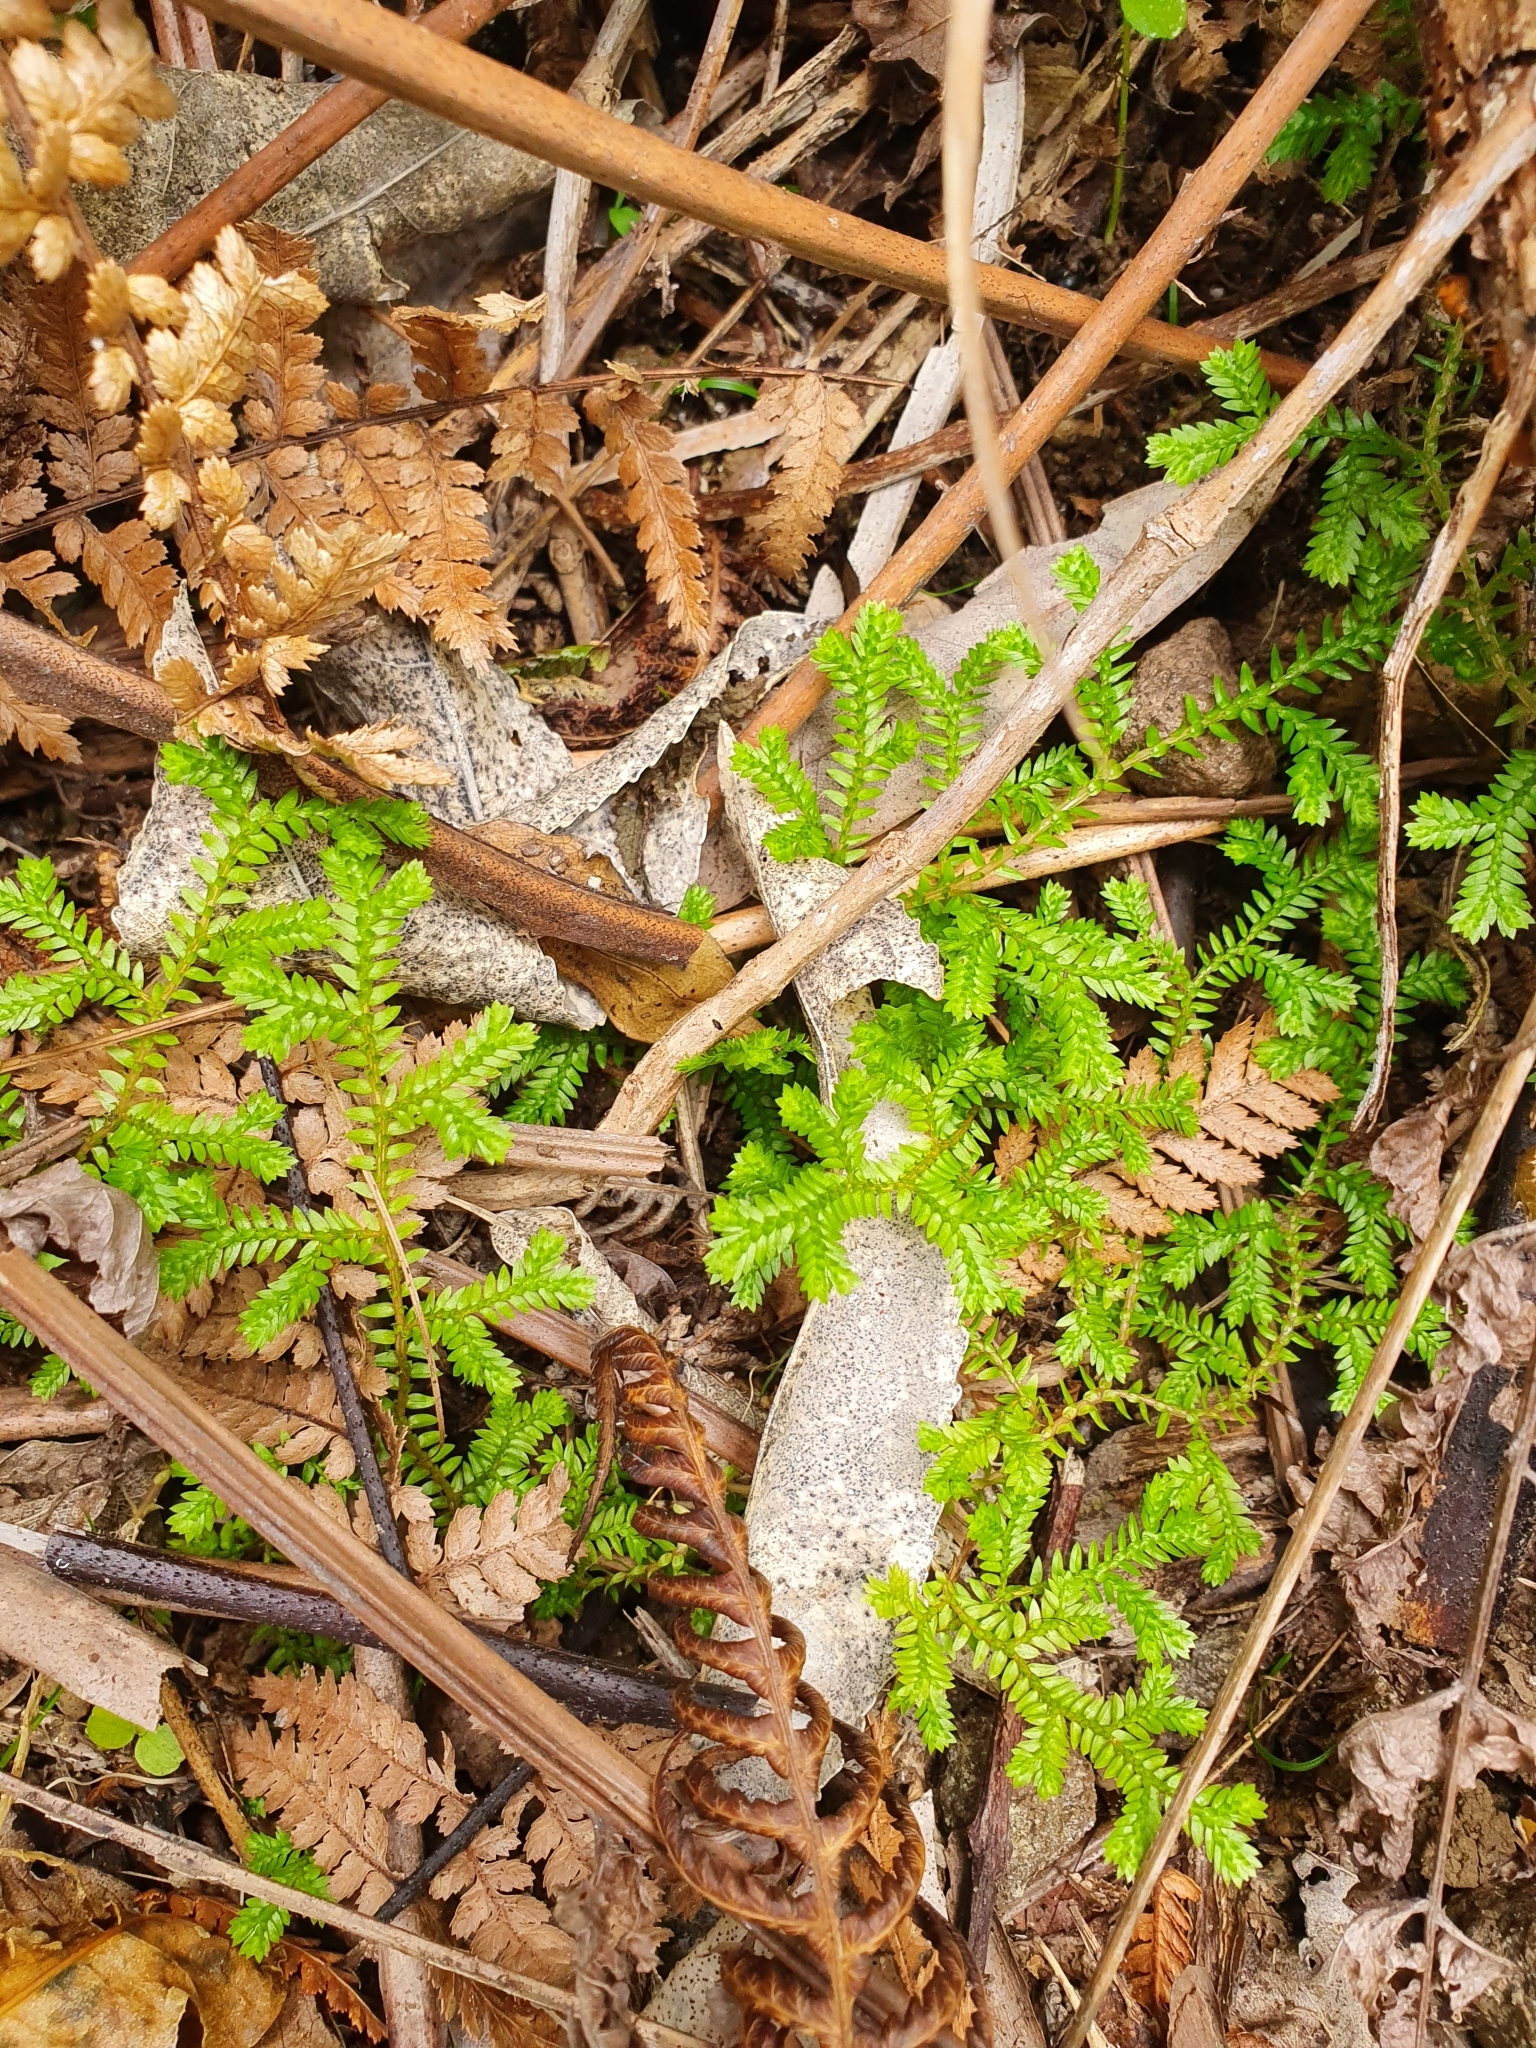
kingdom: Plantae
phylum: Tracheophyta
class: Lycopodiopsida
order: Selaginellales
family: Selaginellaceae
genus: Selaginella
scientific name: Selaginella kraussiana
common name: Krauss' spikemoss
